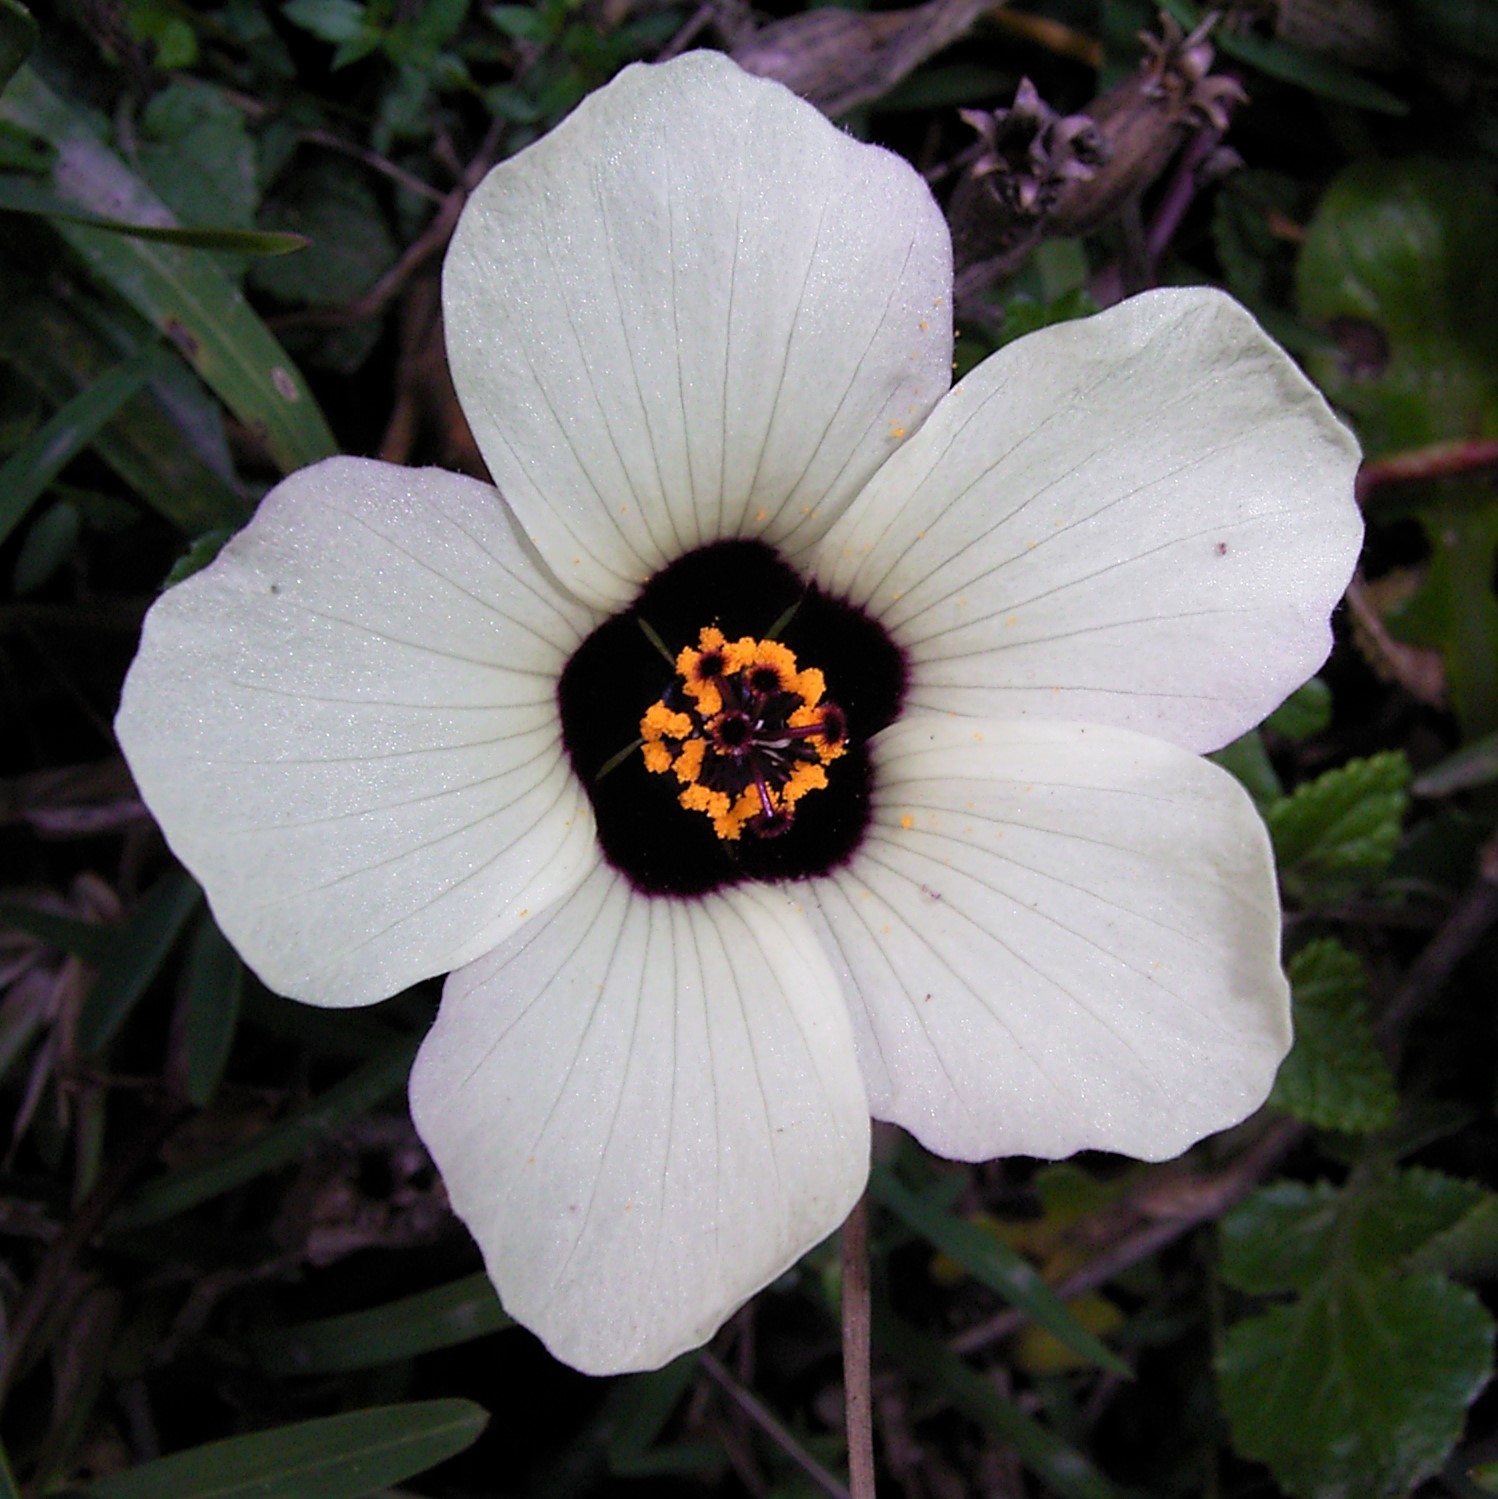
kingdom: Plantae
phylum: Tracheophyta
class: Magnoliopsida
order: Malvales
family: Malvaceae
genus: Hibiscus
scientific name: Hibiscus trionum
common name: Bladder ketmia
